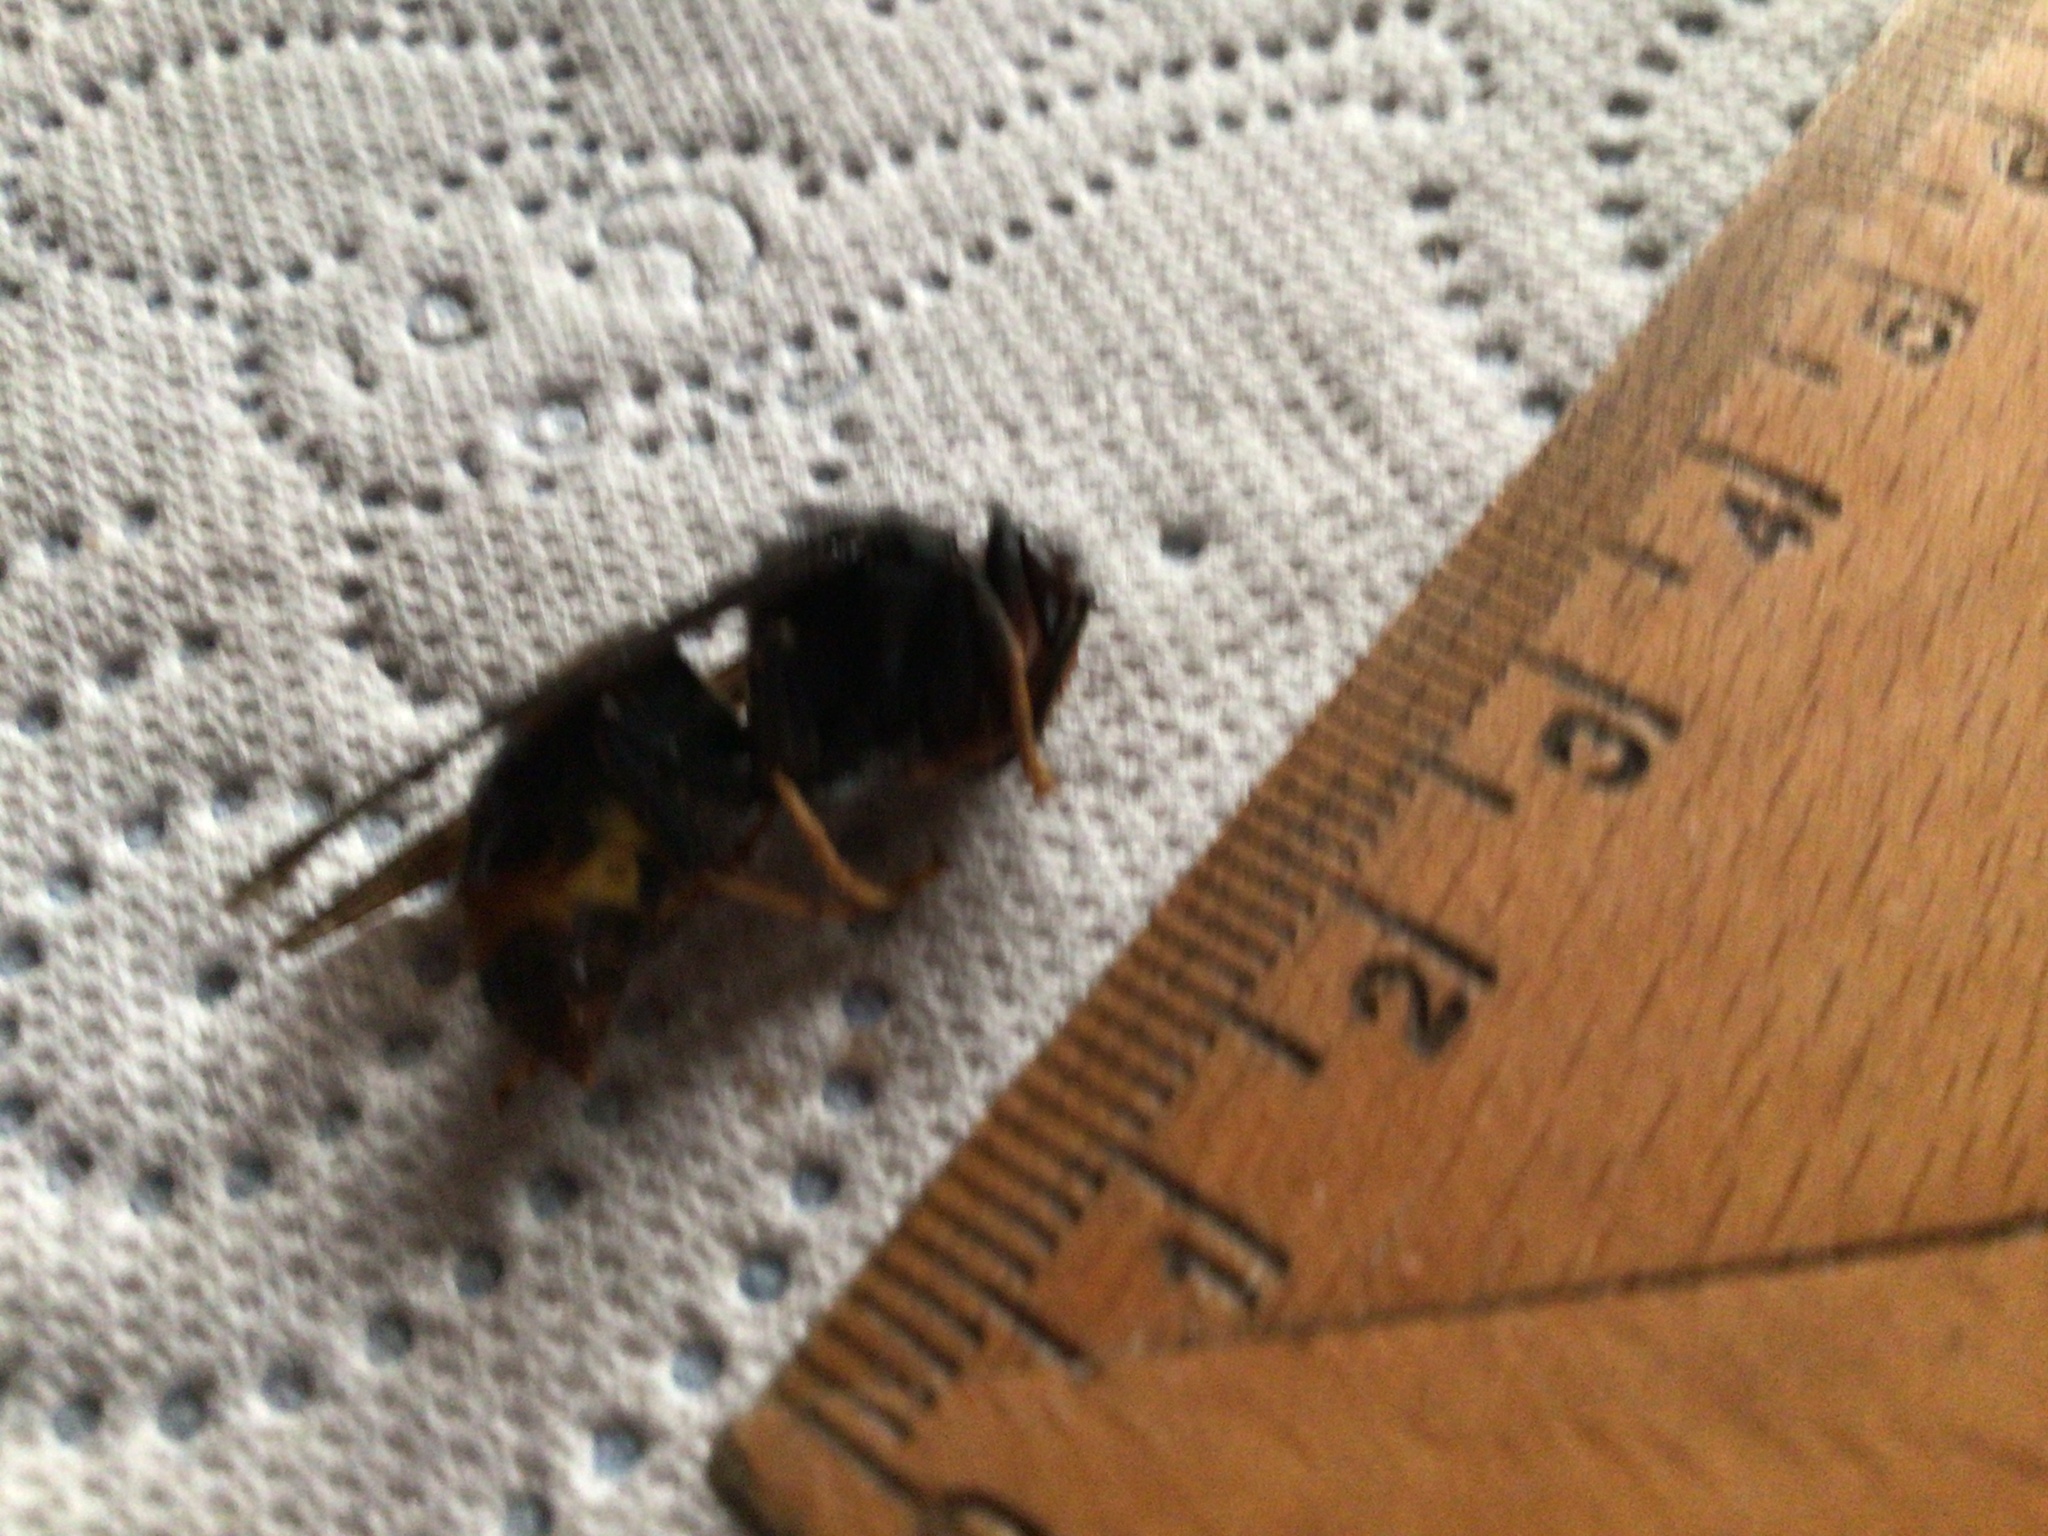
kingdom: Animalia
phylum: Arthropoda
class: Insecta
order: Hymenoptera
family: Vespidae
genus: Vespa
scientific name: Vespa velutina
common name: Asian hornet
